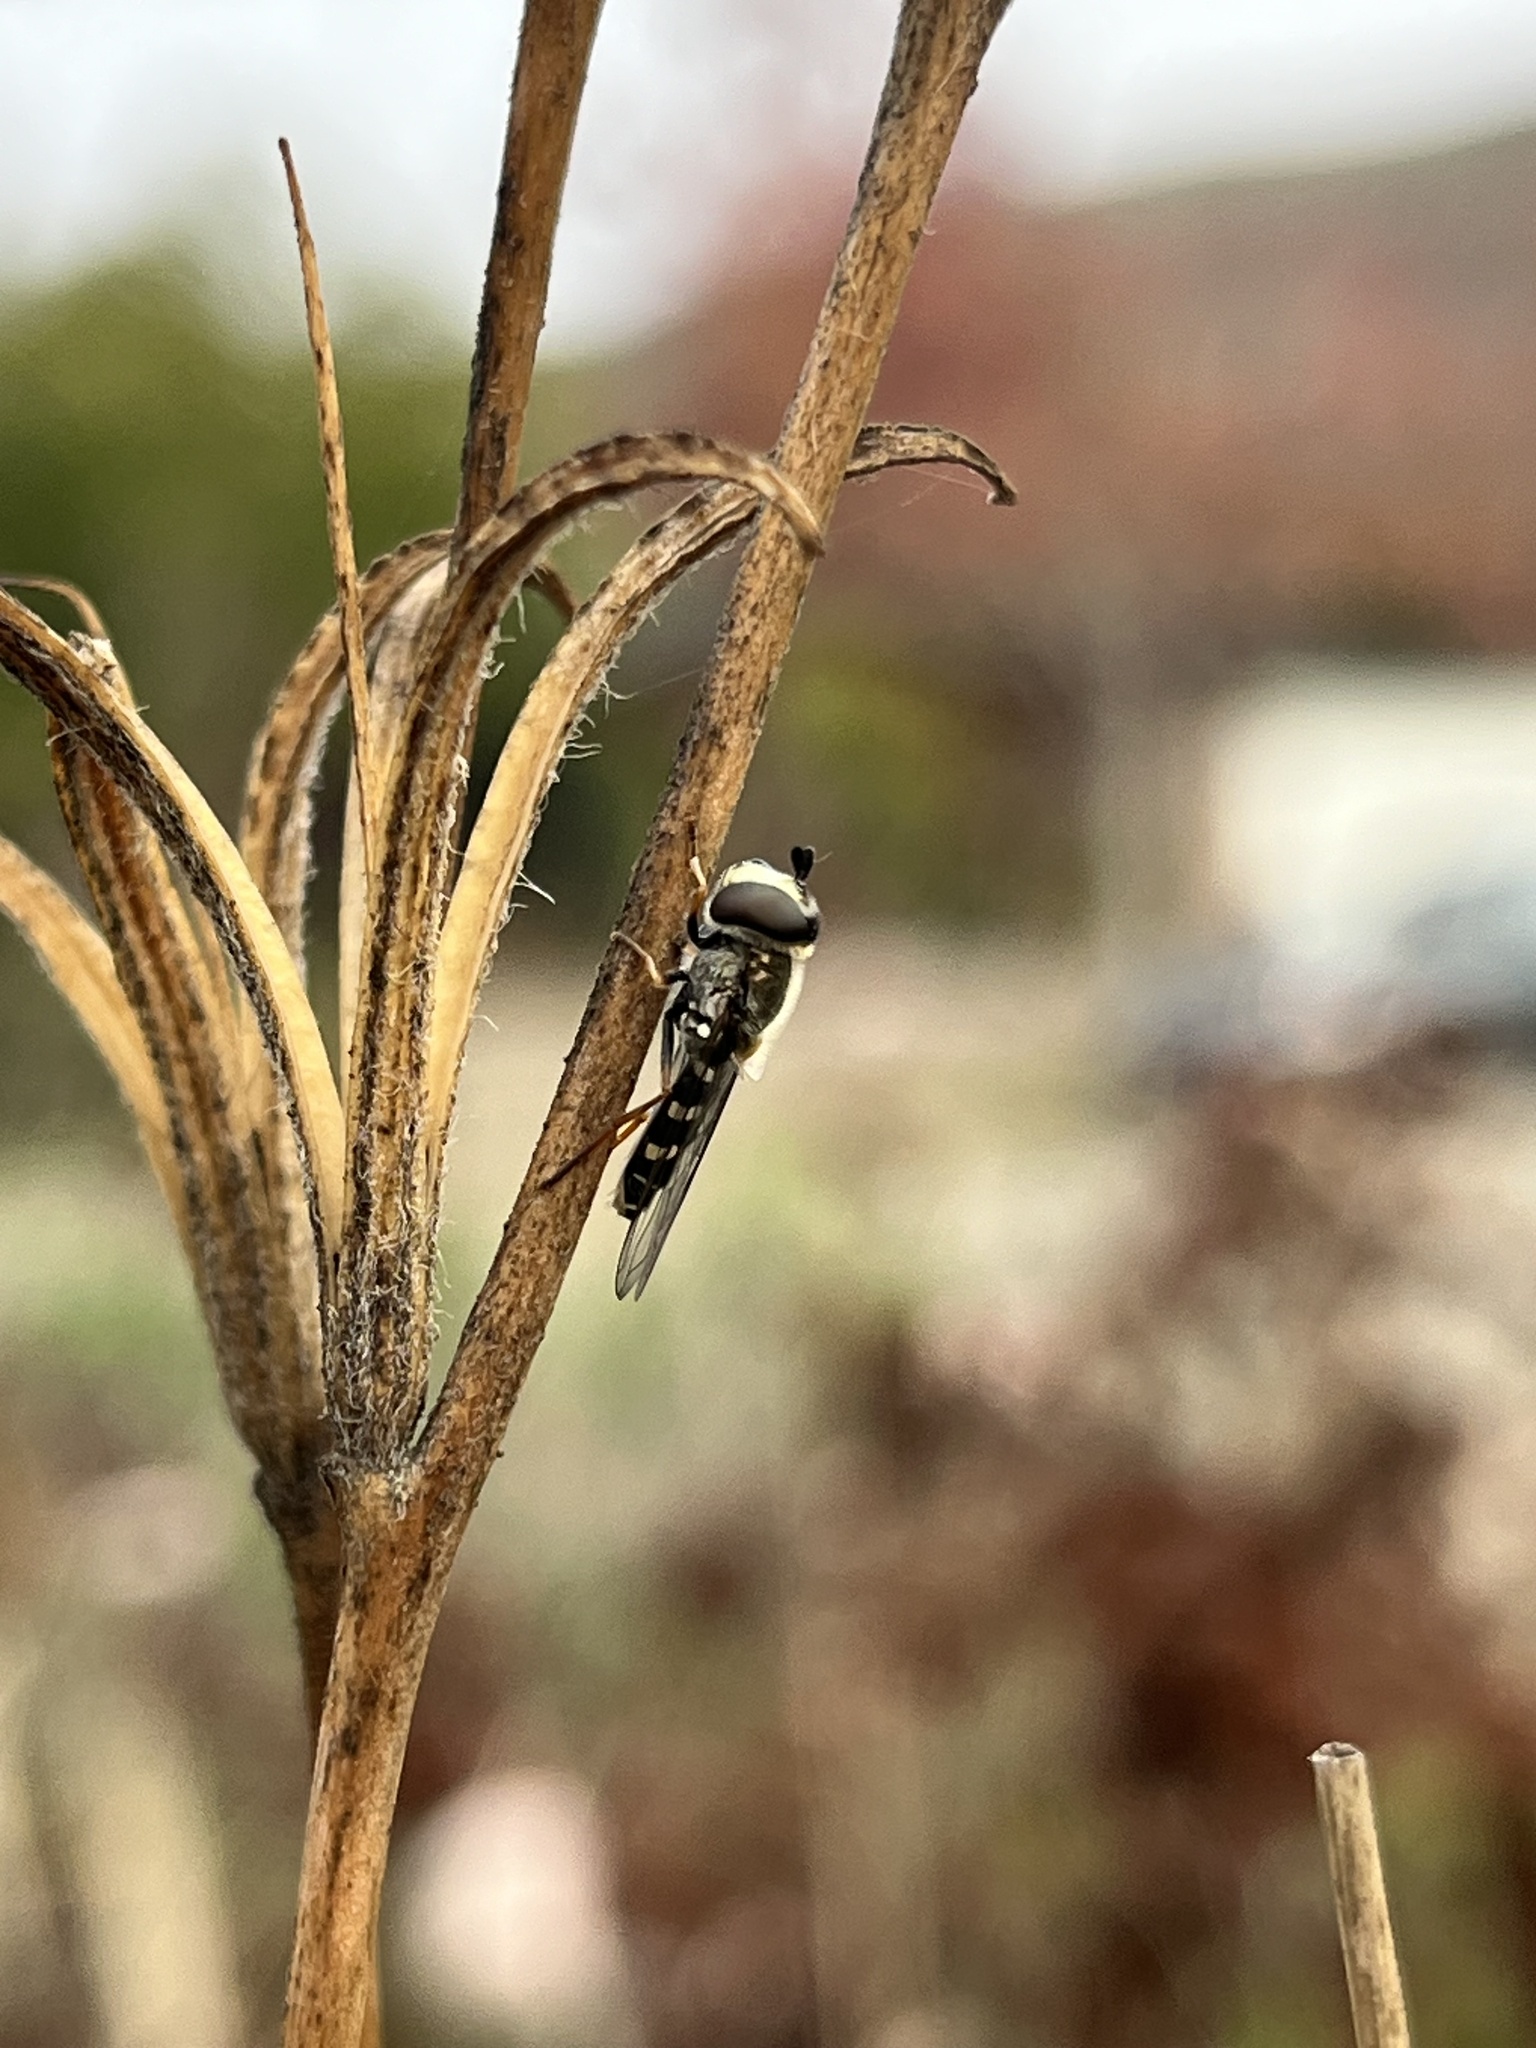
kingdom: Animalia
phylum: Arthropoda
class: Insecta
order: Diptera
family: Syrphidae
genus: Eupeodes
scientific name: Eupeodes volucris
